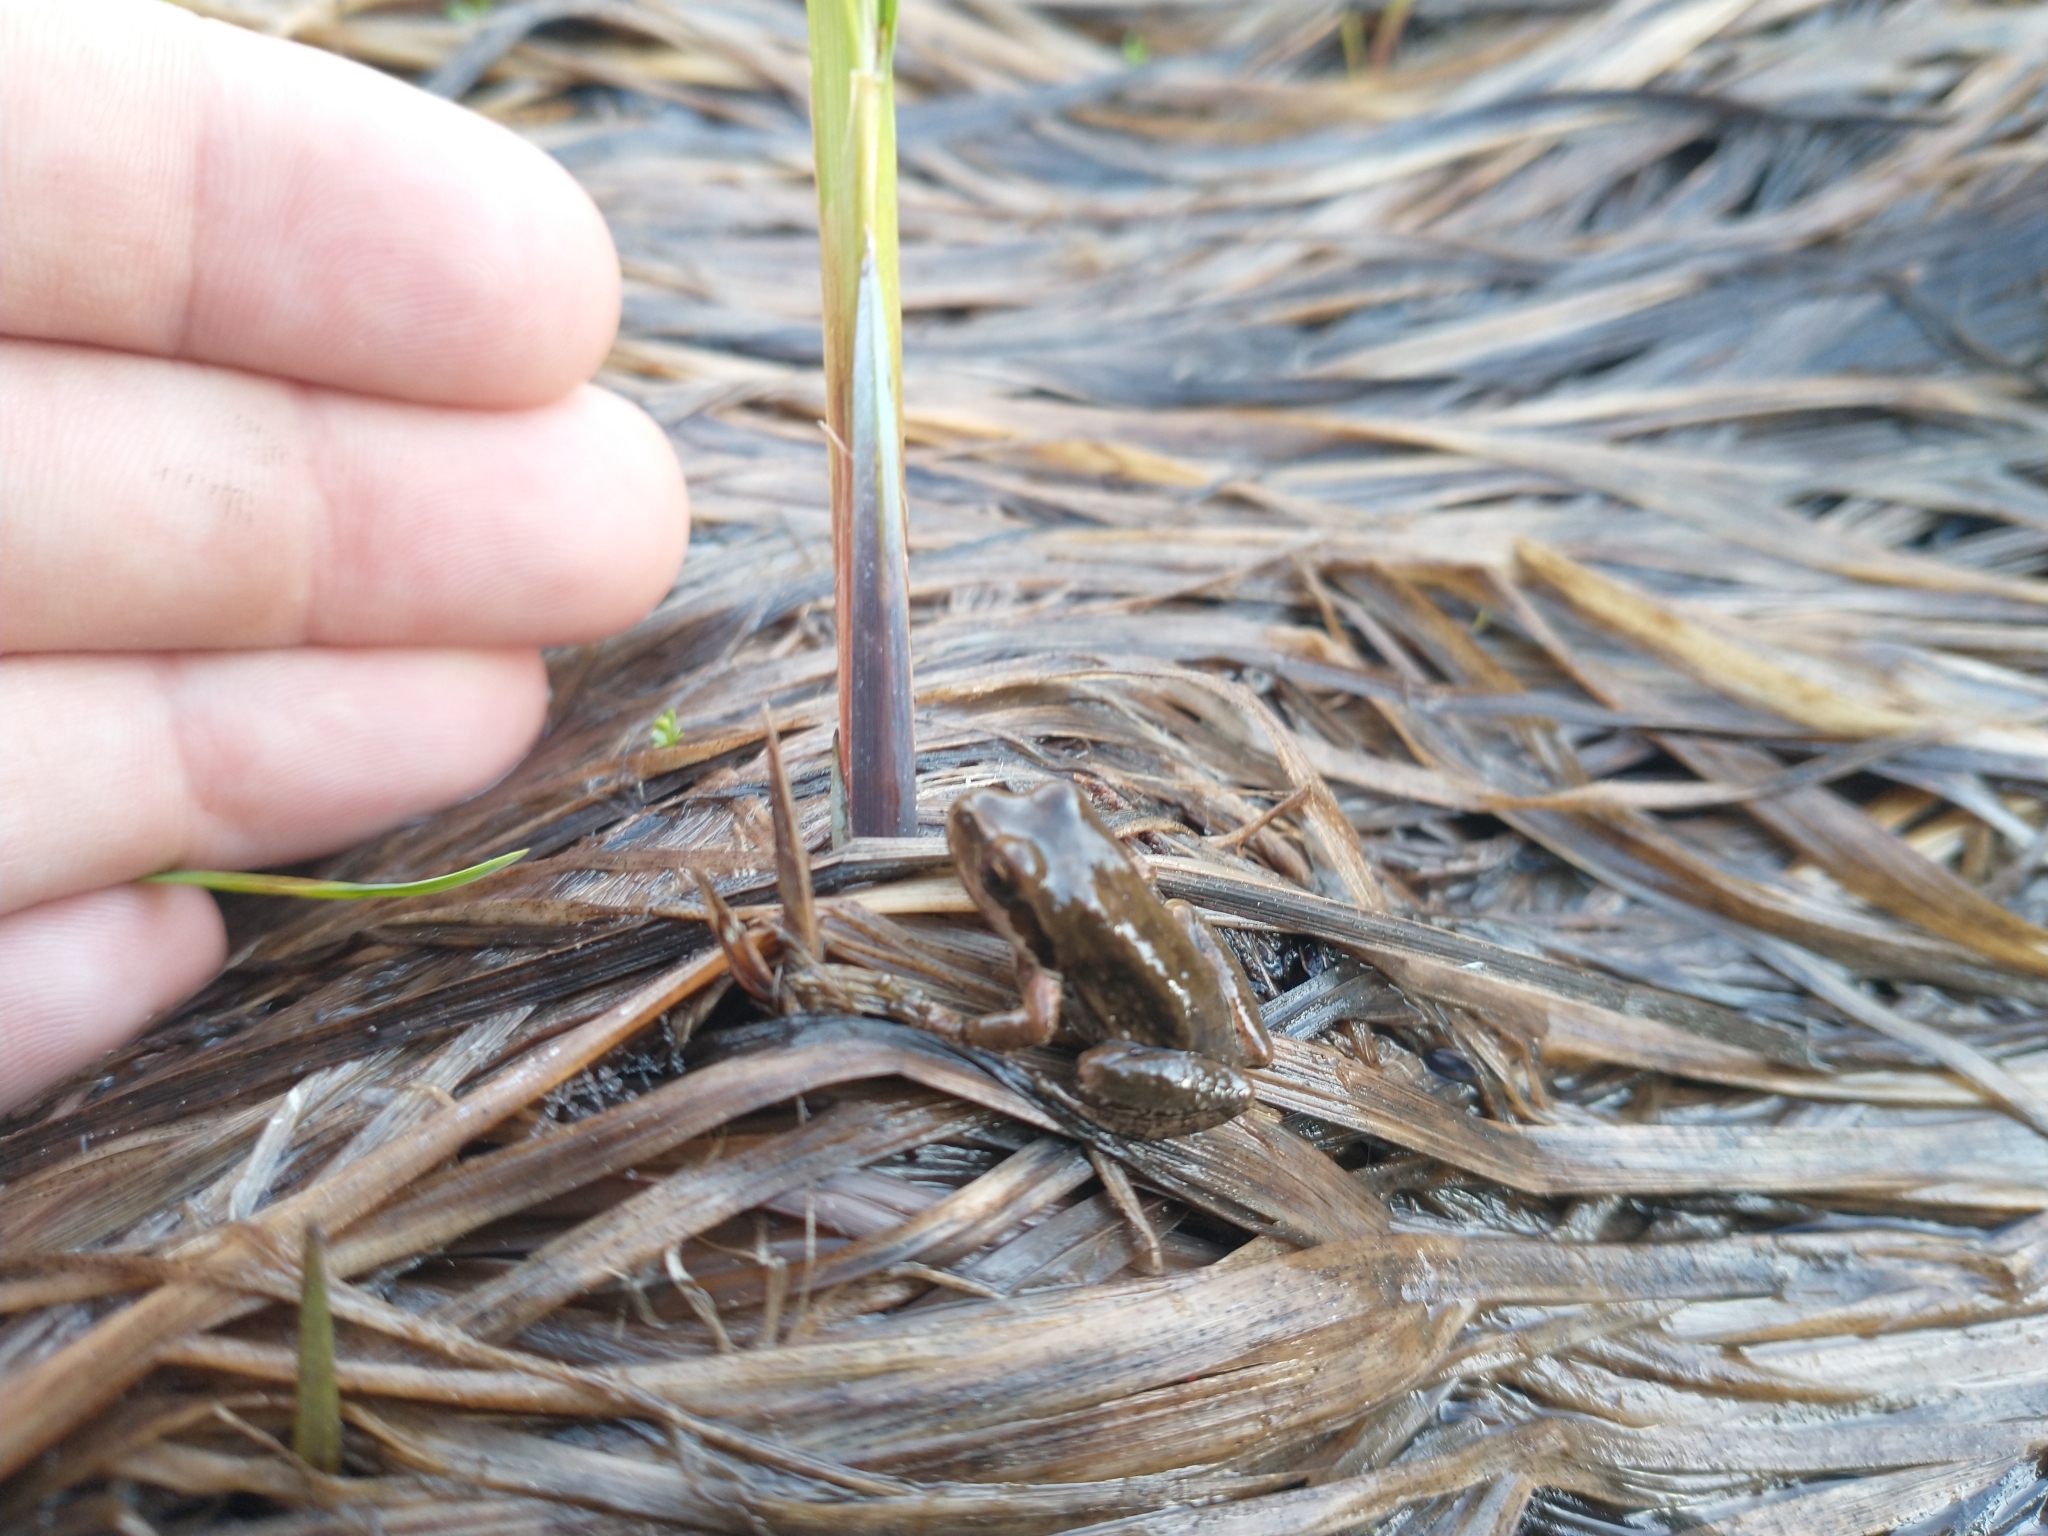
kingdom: Animalia
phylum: Chordata
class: Amphibia
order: Anura
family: Hylidae
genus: Pseudacris
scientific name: Pseudacris regilla
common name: Pacific chorus frog
